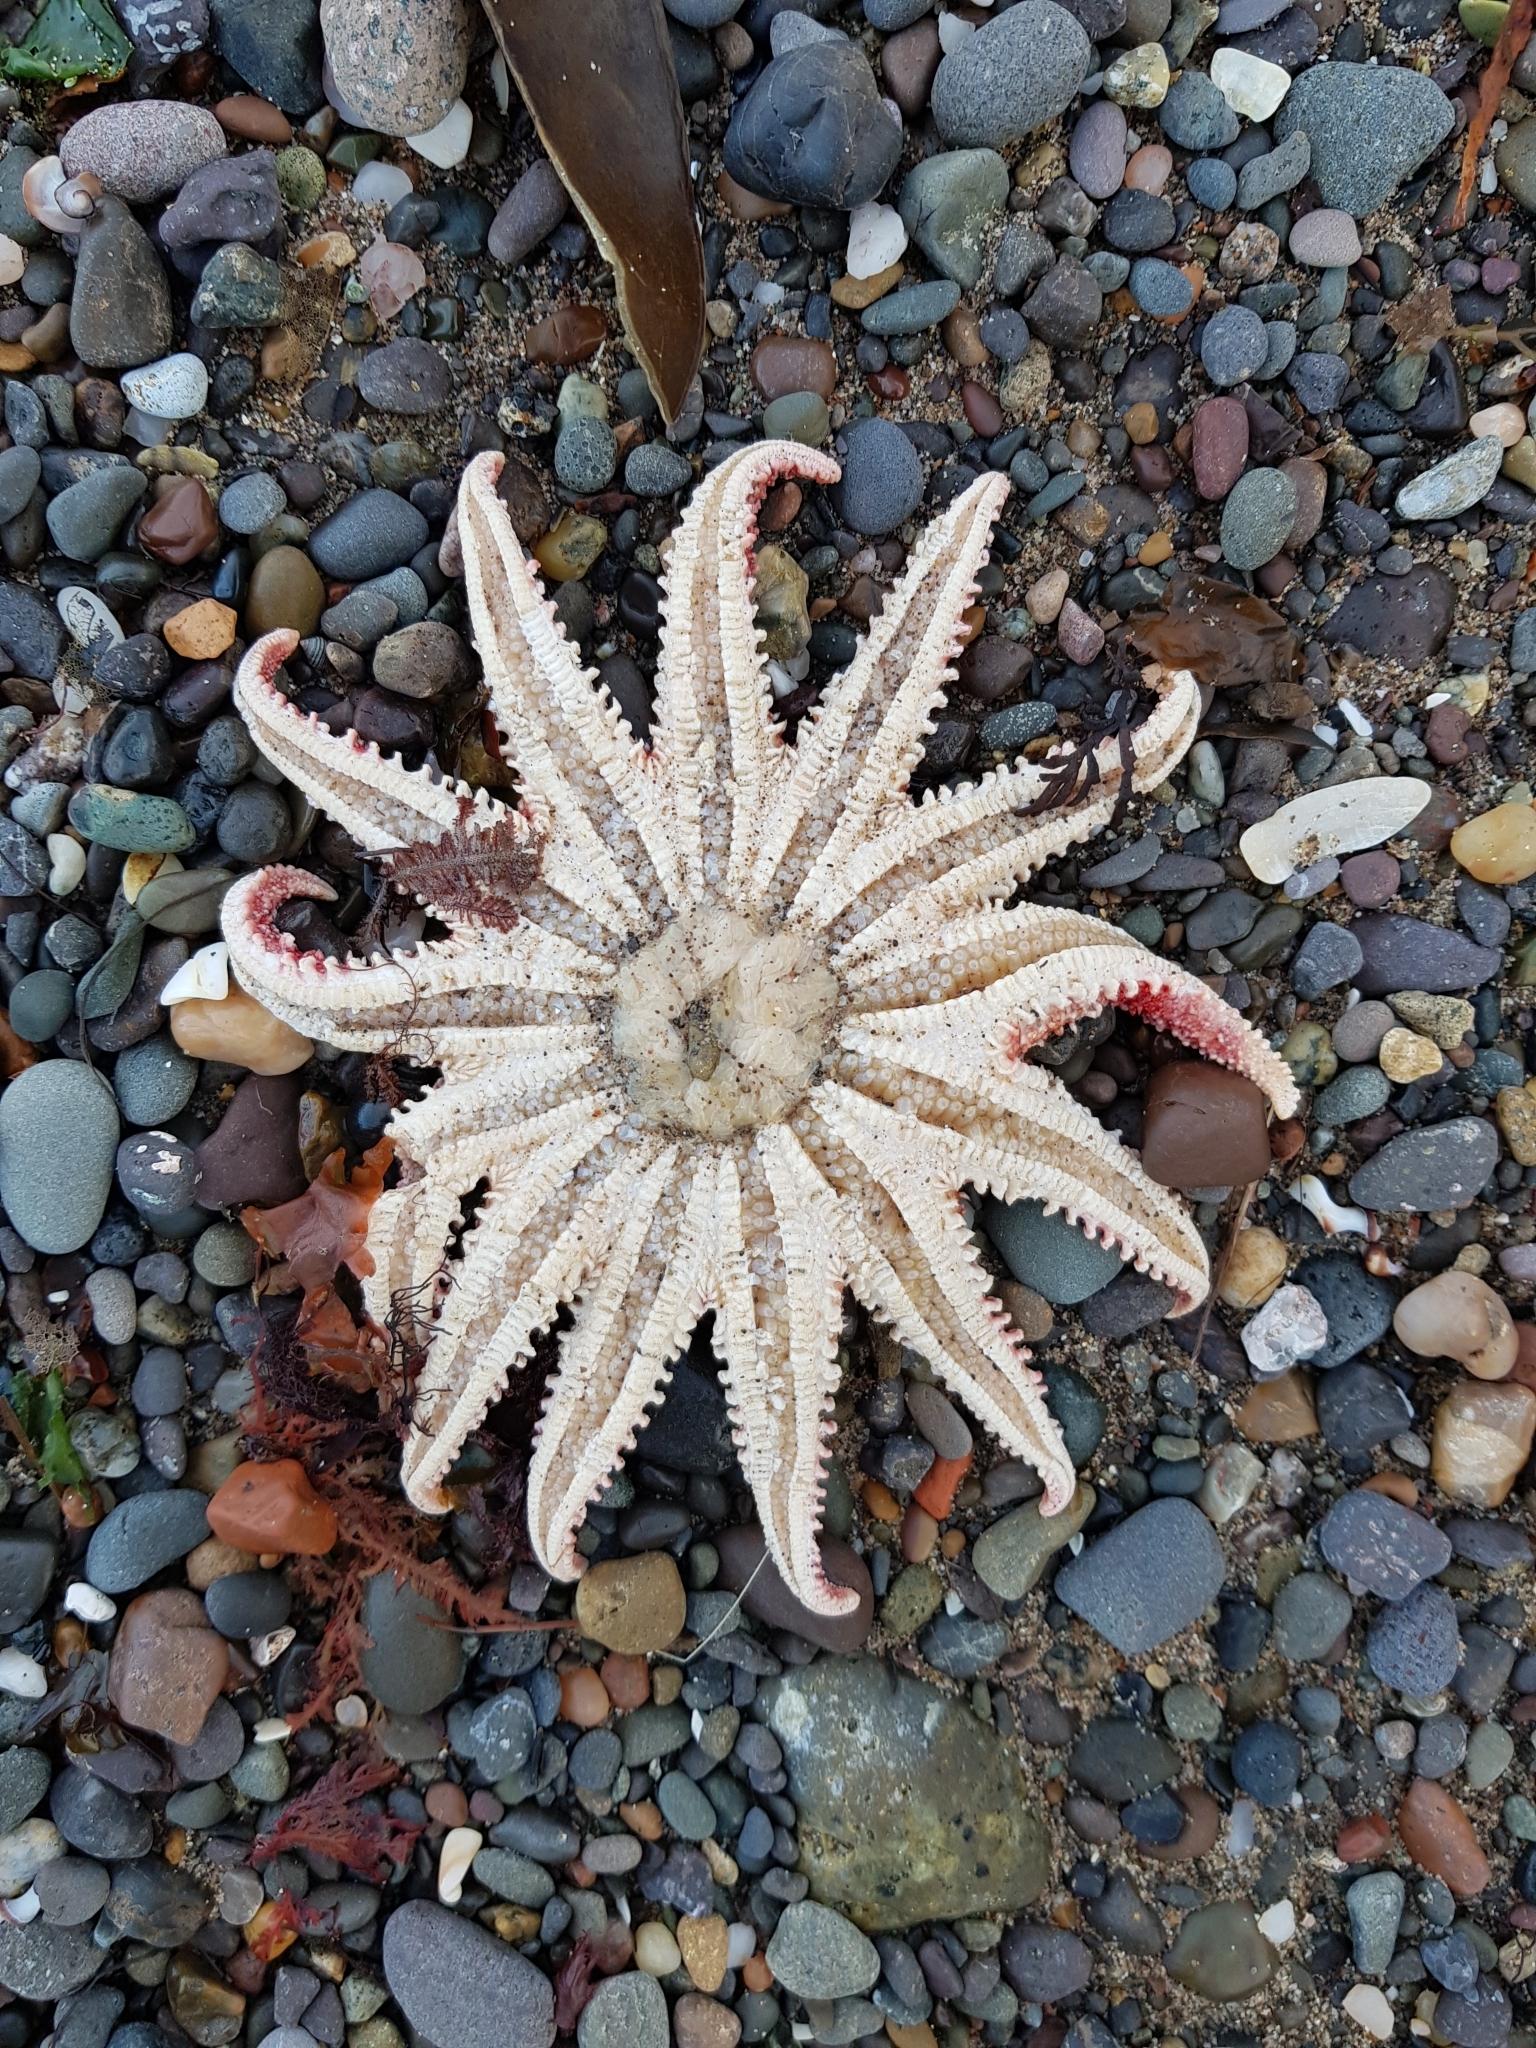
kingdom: Animalia
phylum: Echinodermata
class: Asteroidea
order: Valvatida
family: Solasteridae
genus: Crossaster
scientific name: Crossaster papposus
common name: Common sun star
